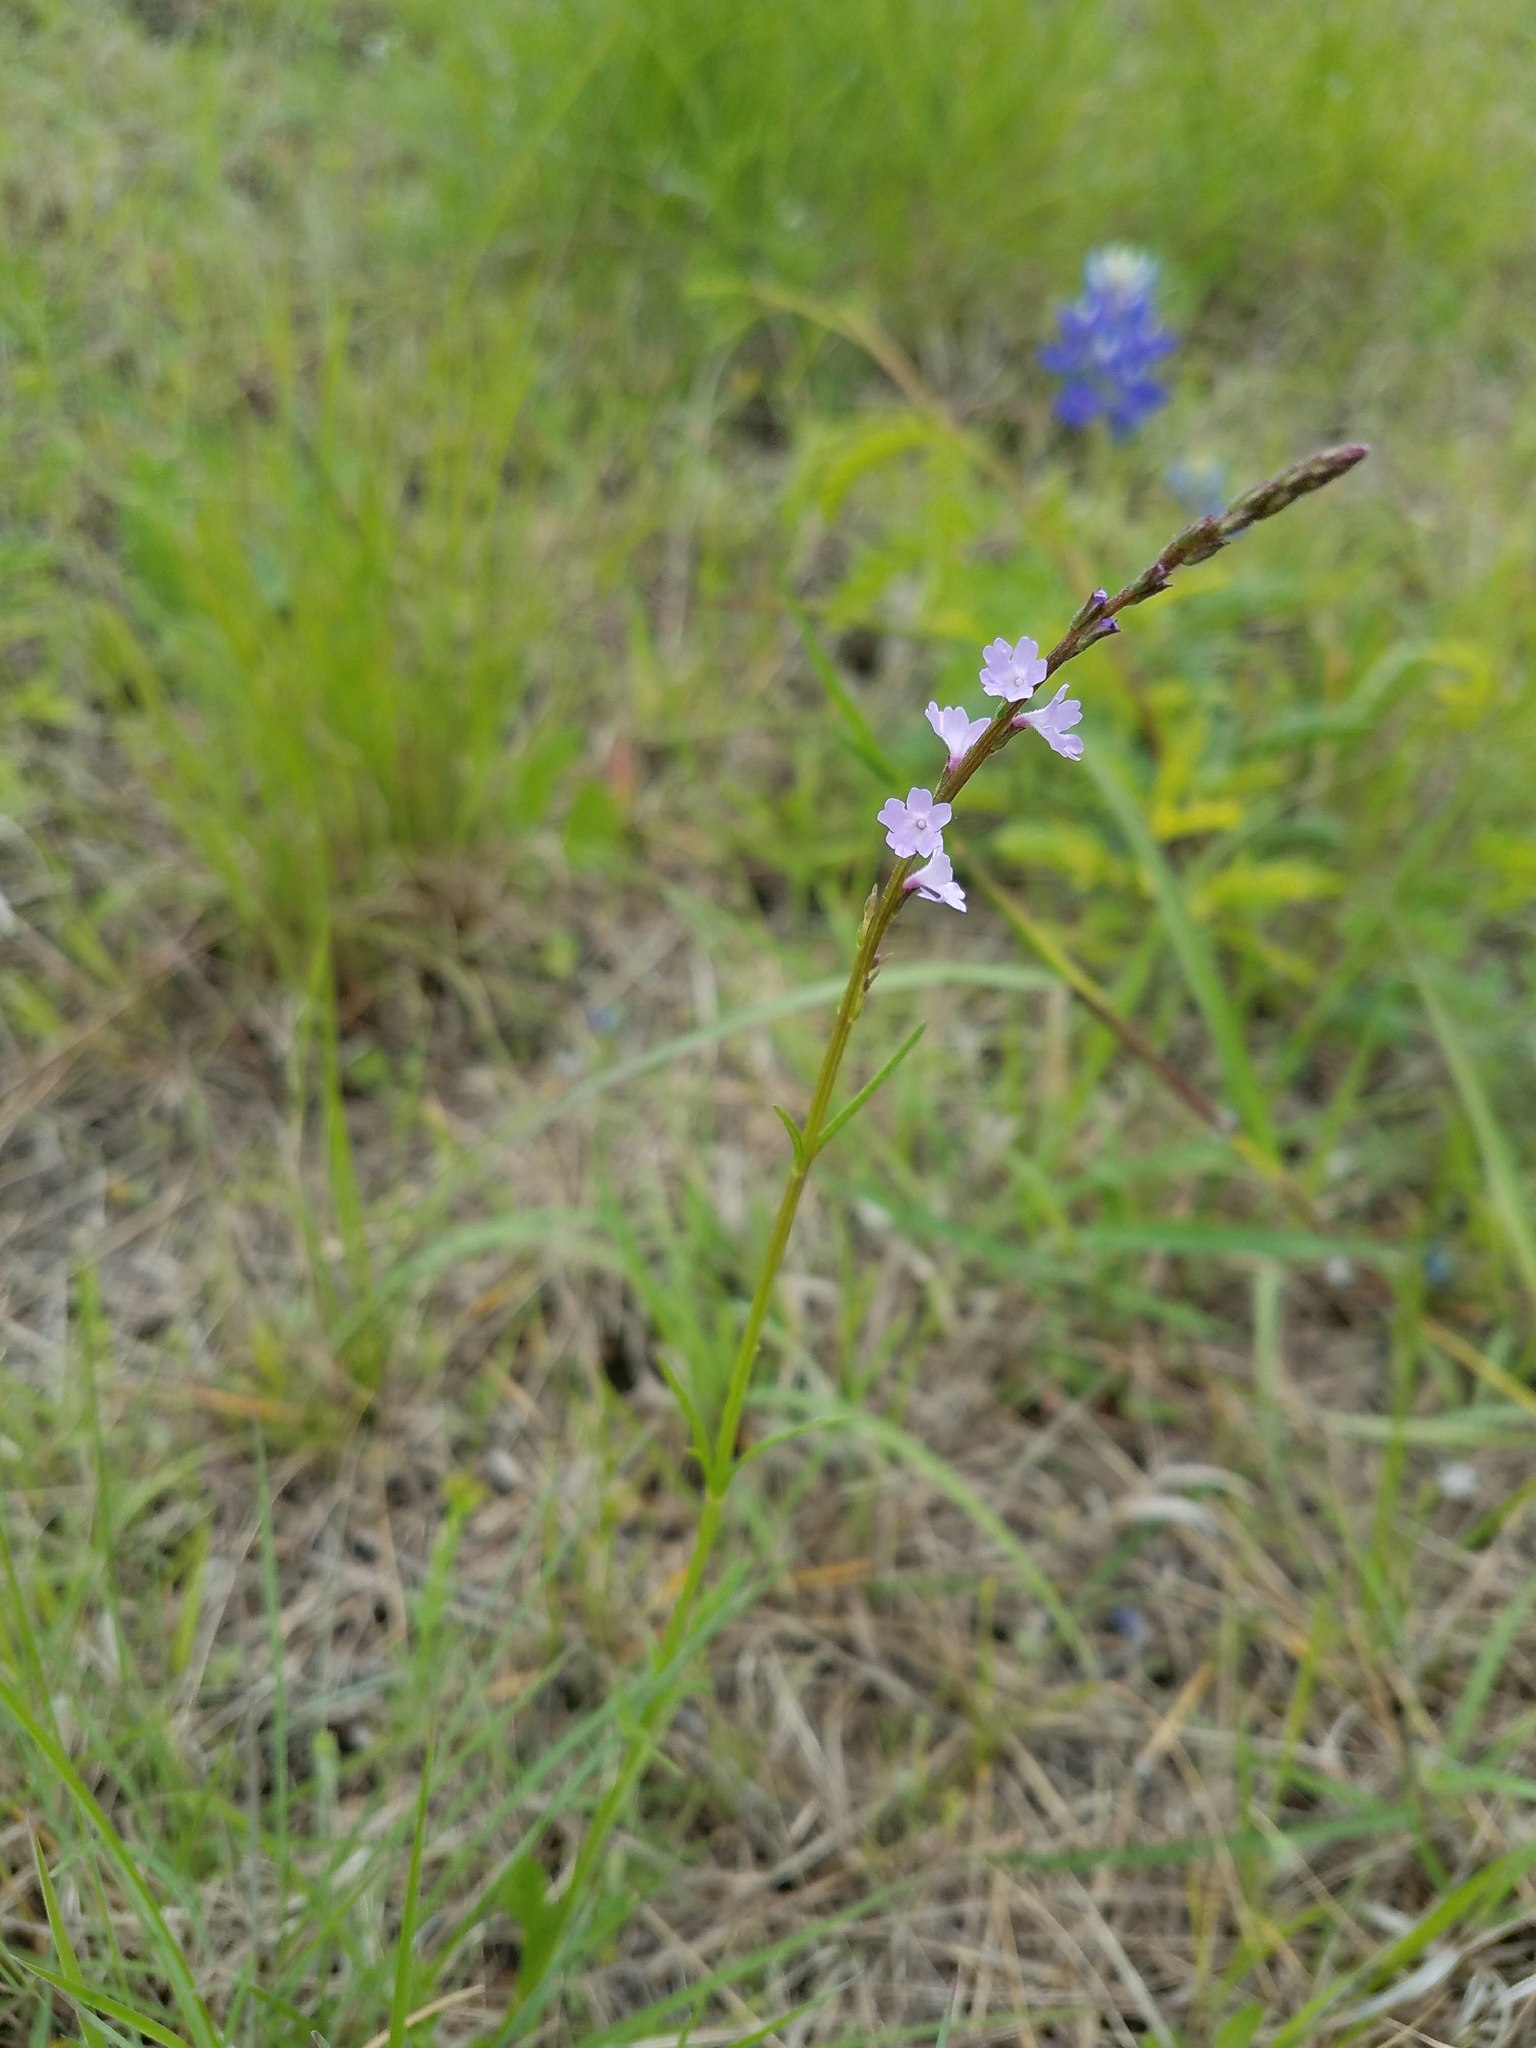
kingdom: Plantae
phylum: Tracheophyta
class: Magnoliopsida
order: Lamiales
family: Verbenaceae
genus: Verbena
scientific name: Verbena halei
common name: Texas vervain
